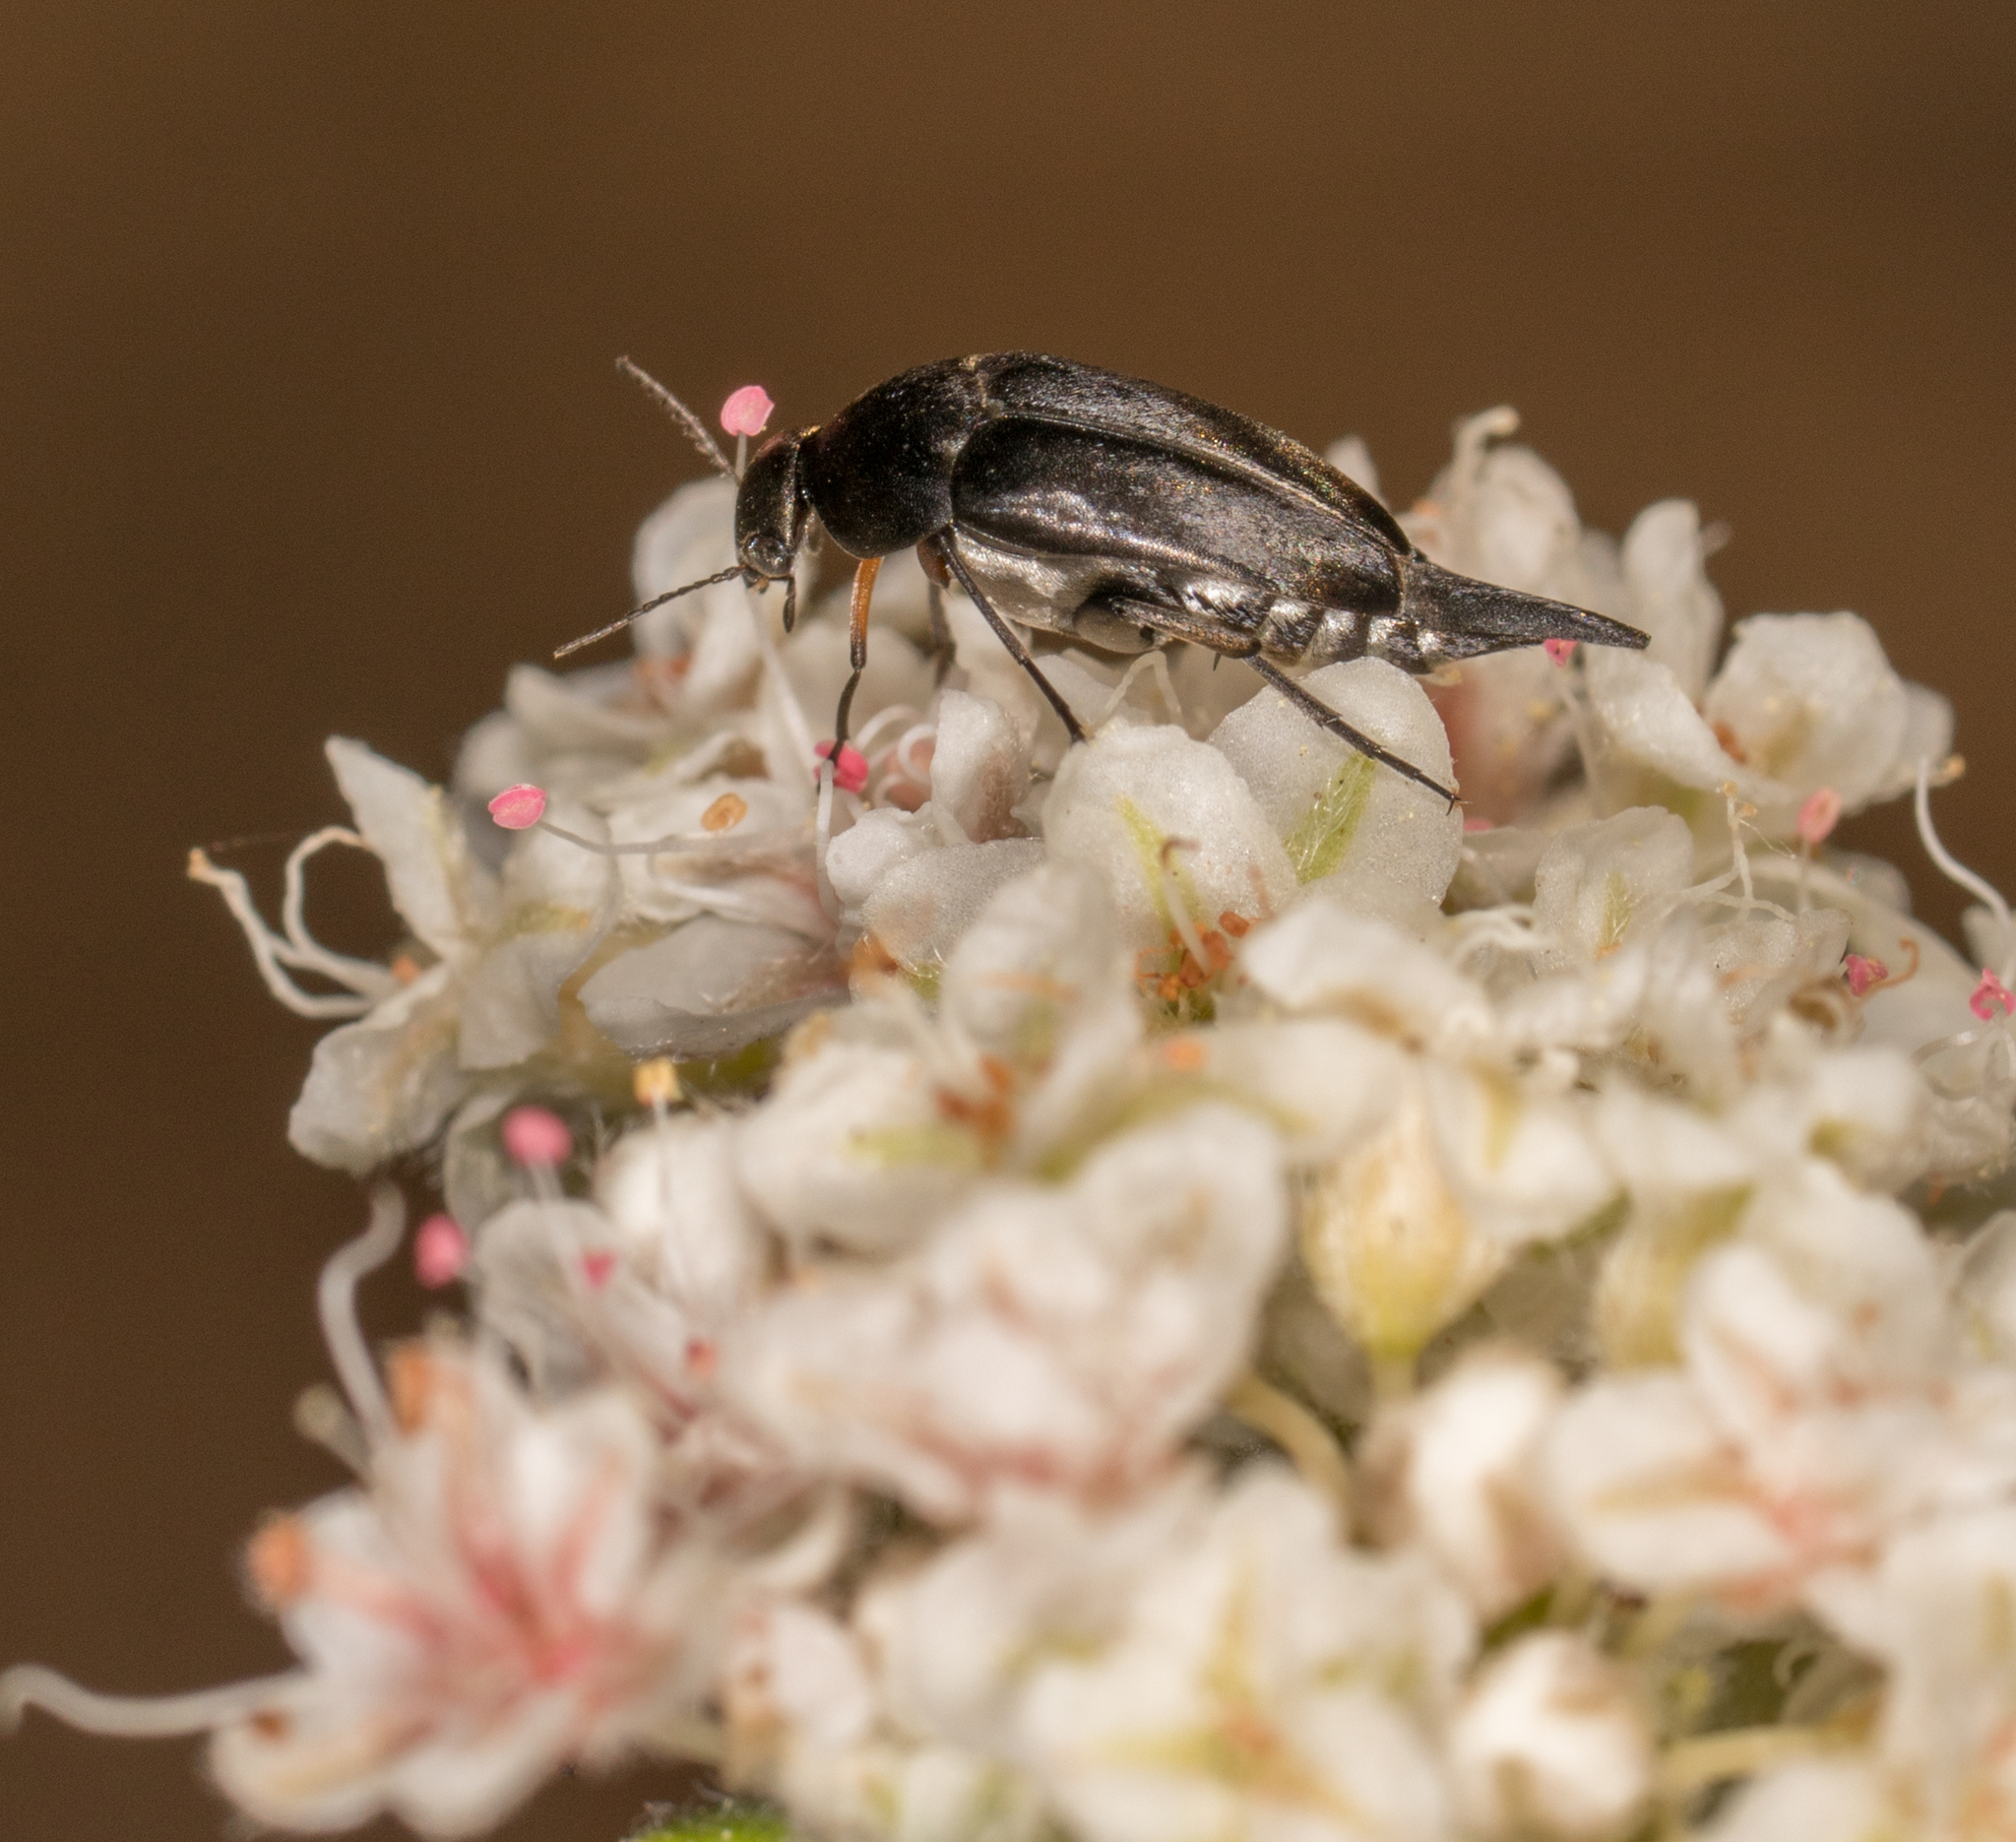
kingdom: Animalia
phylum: Arthropoda
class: Insecta
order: Coleoptera
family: Mordellidae
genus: Mordella
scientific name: Mordella hubbsi
